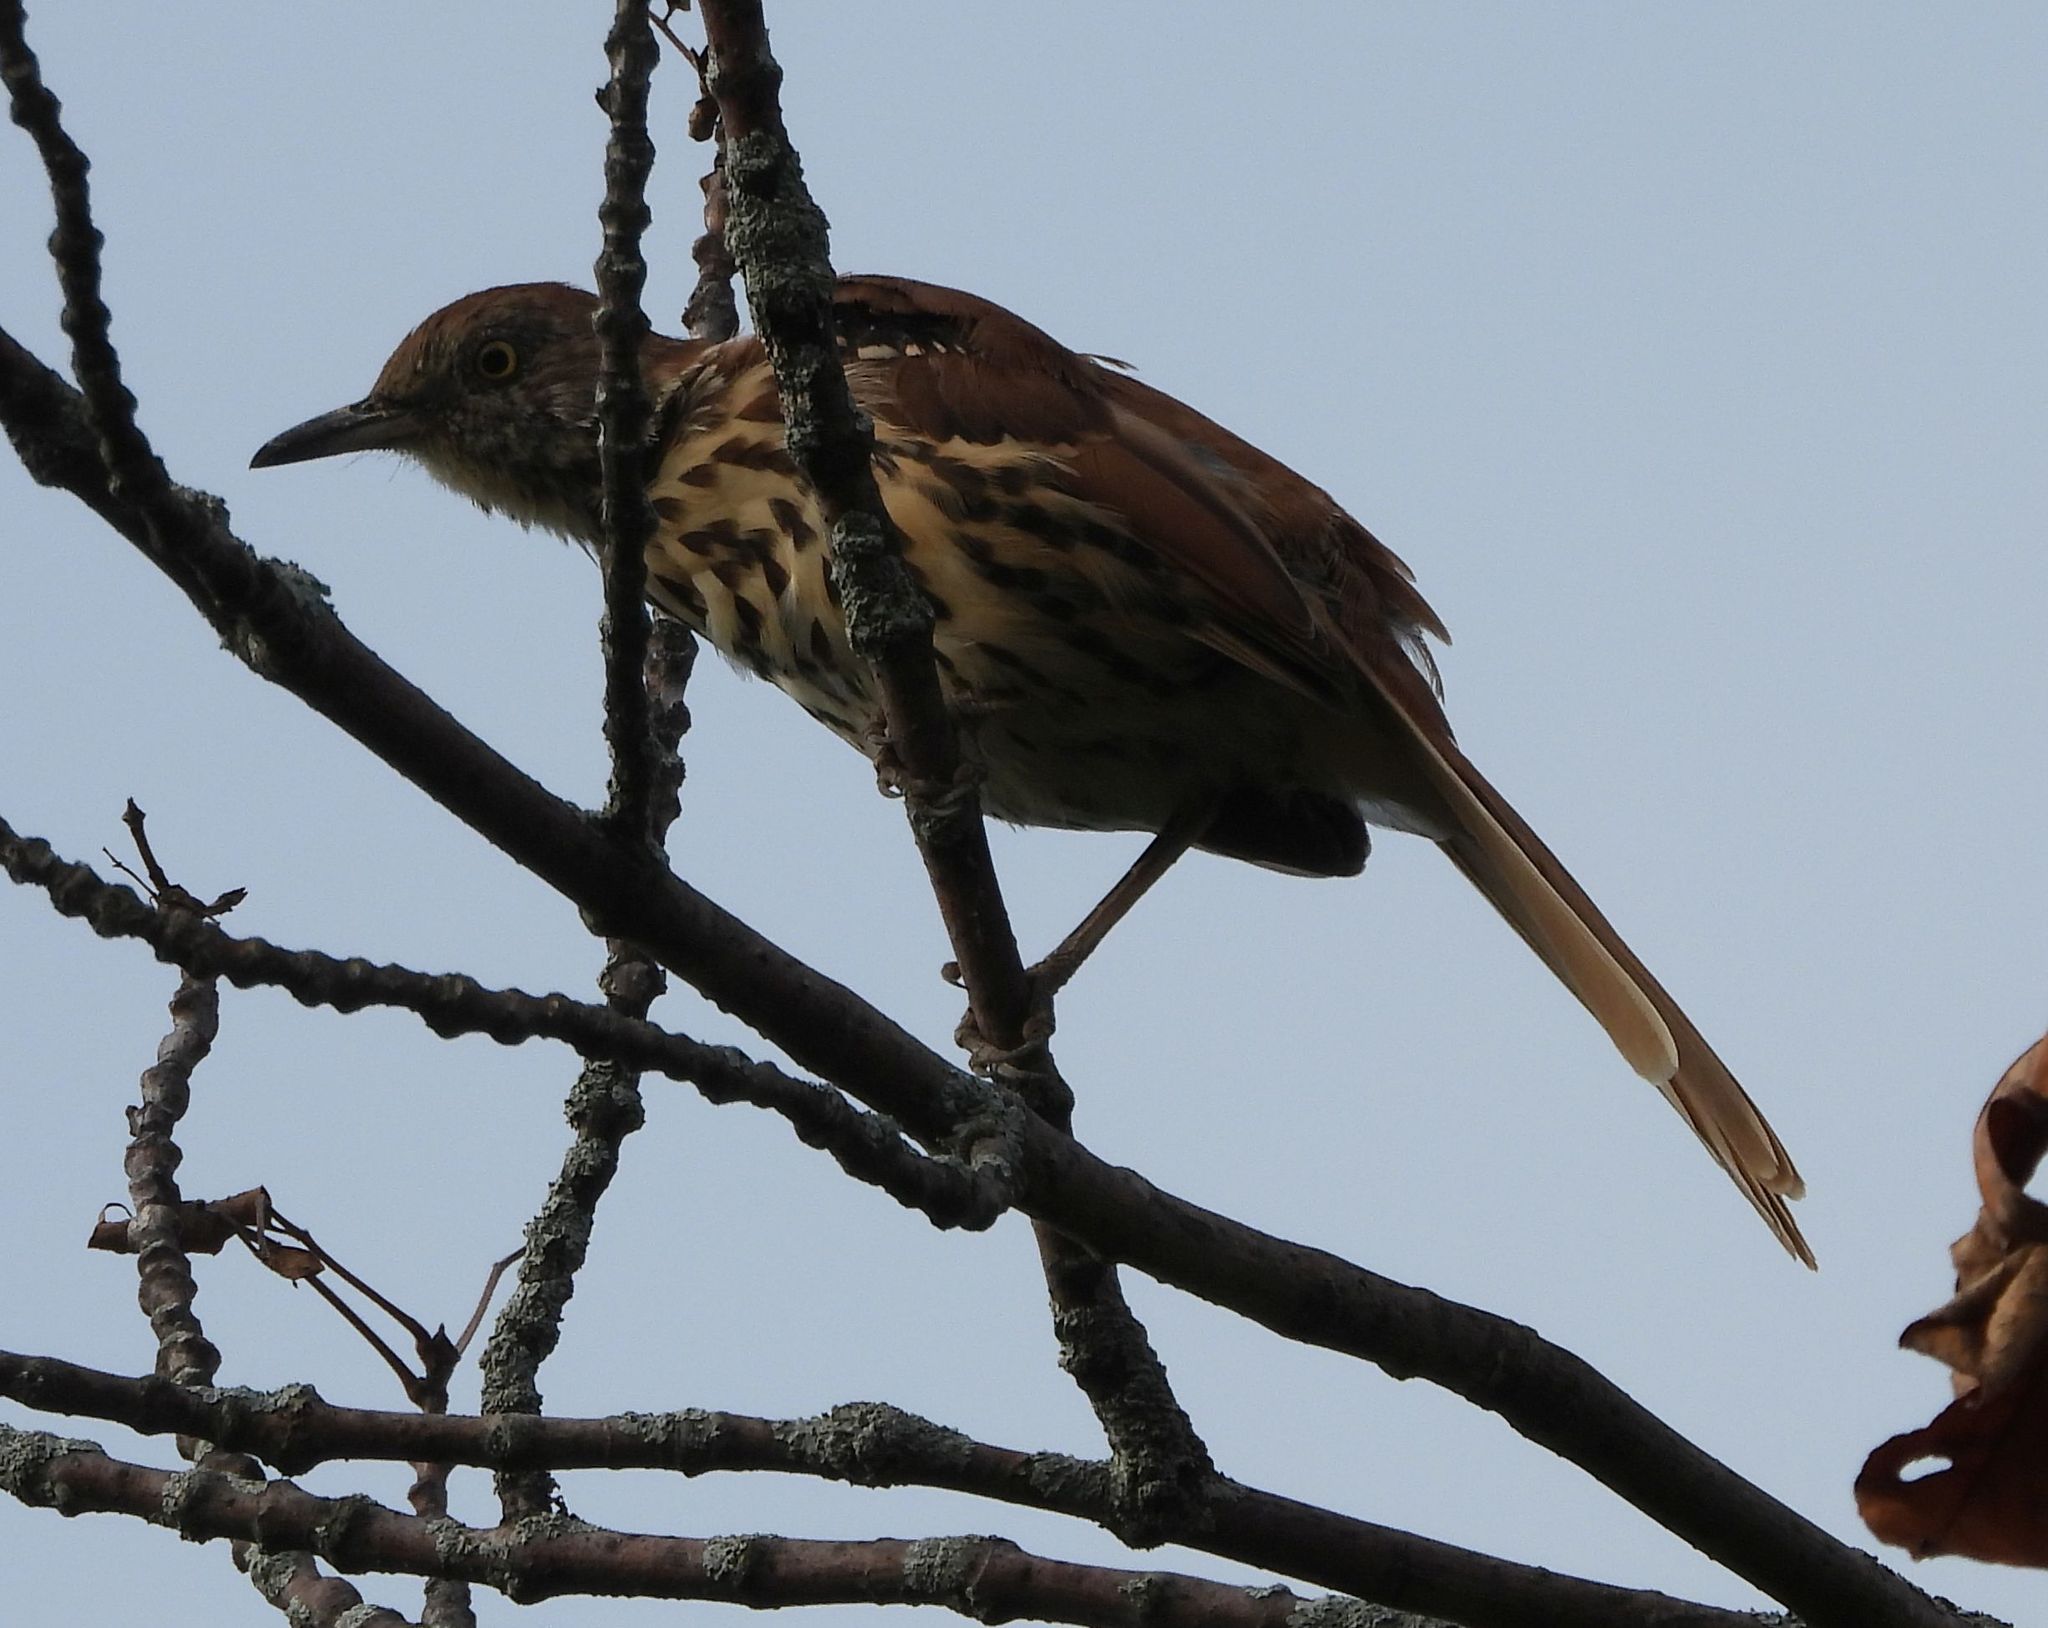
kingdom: Animalia
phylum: Chordata
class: Aves
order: Passeriformes
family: Mimidae
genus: Toxostoma
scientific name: Toxostoma rufum
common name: Brown thrasher
